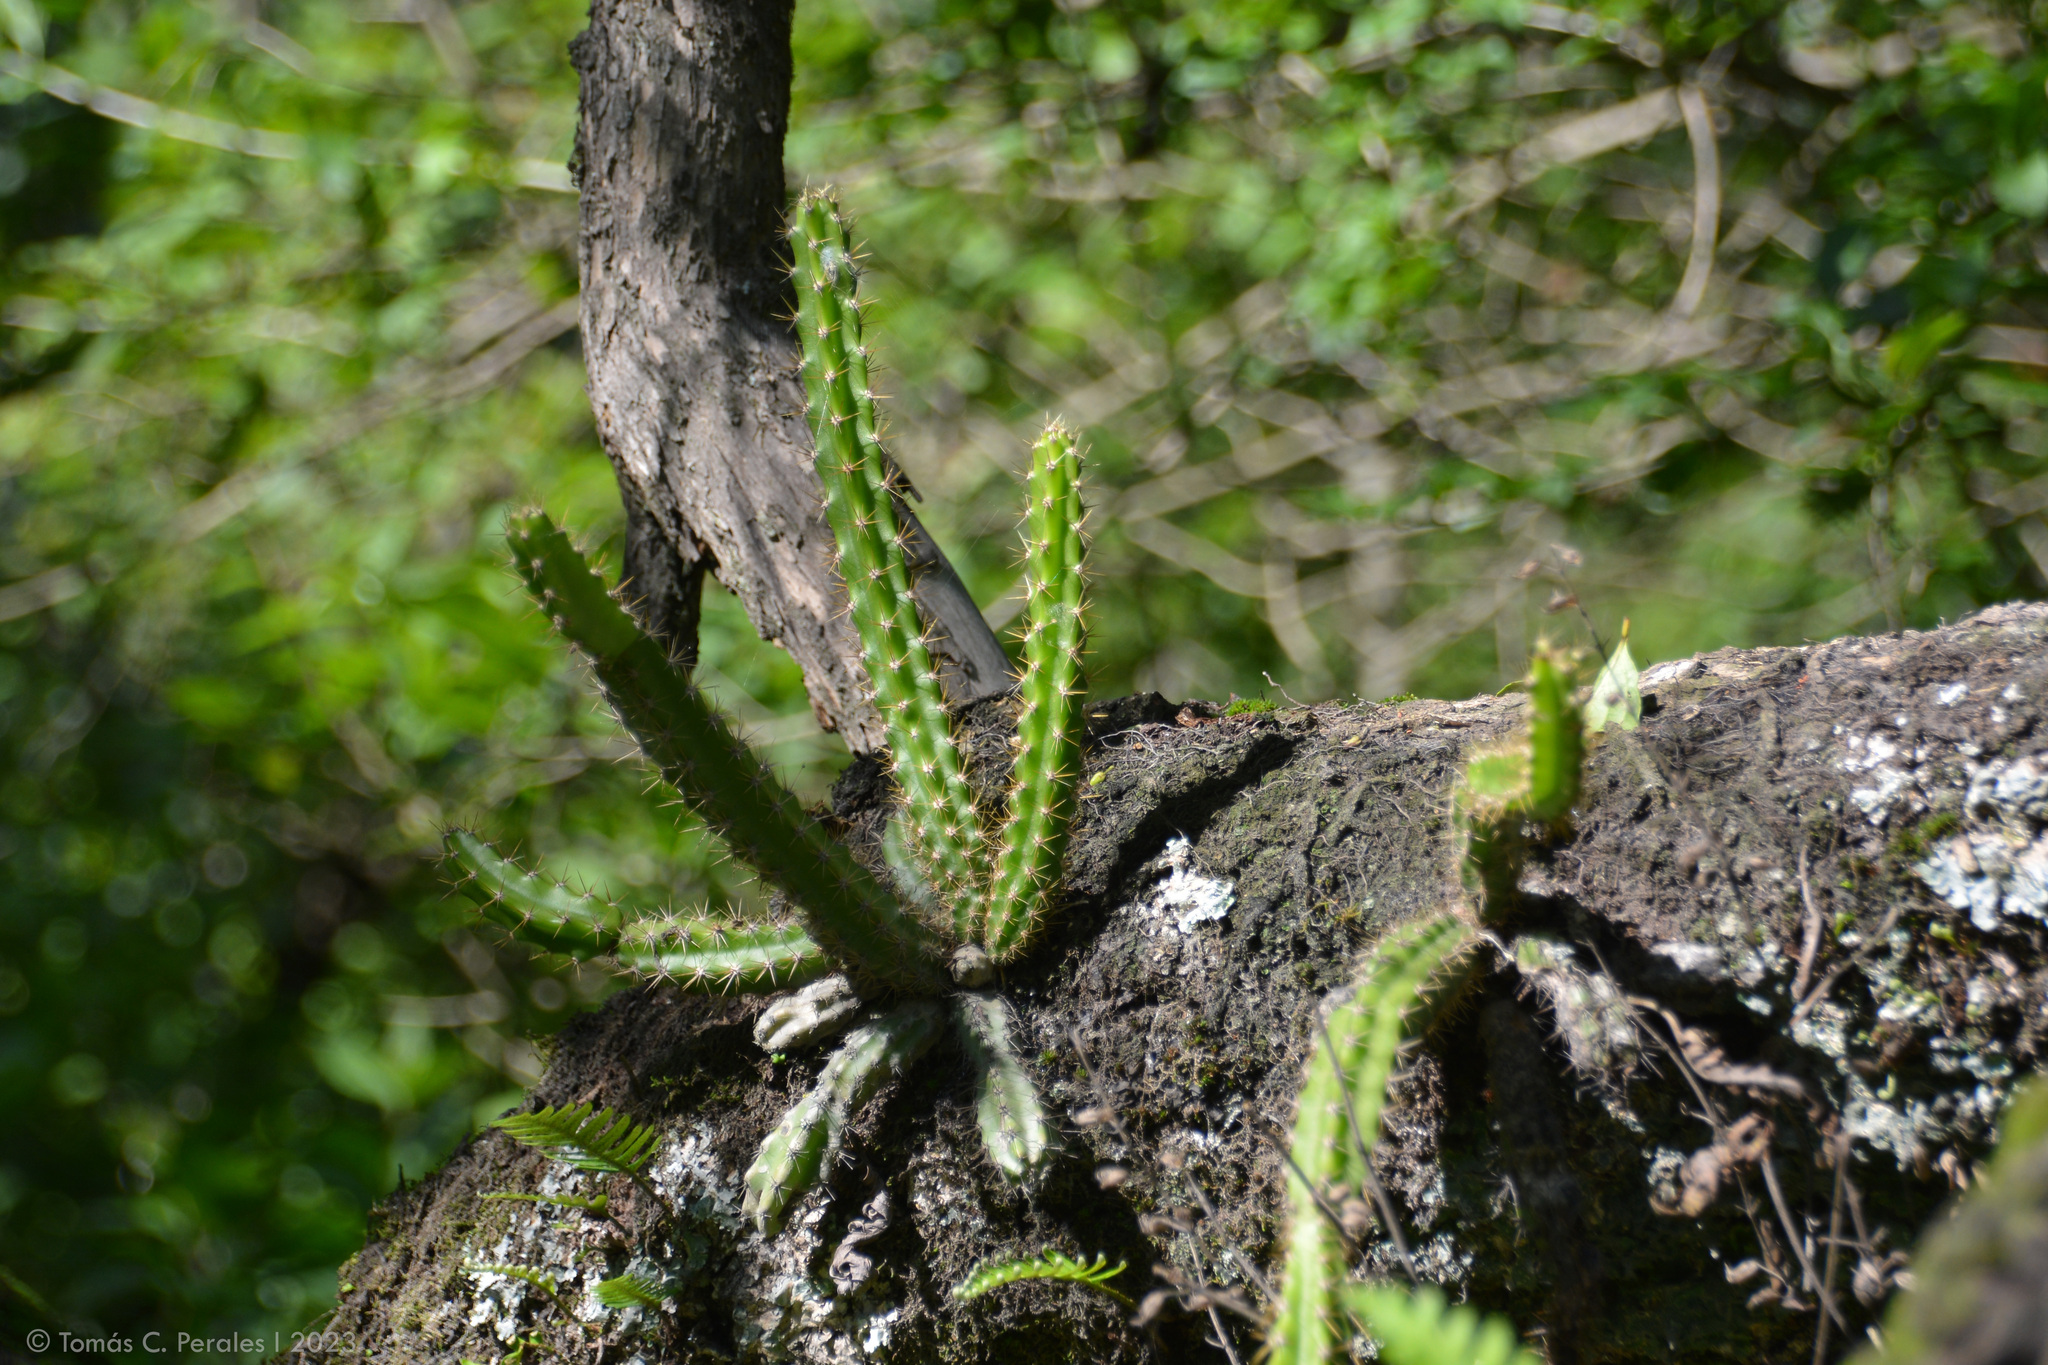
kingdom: Plantae
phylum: Tracheophyta
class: Magnoliopsida
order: Caryophyllales
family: Cactaceae
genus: Pfeiffera
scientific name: Pfeiffera ianthothele
